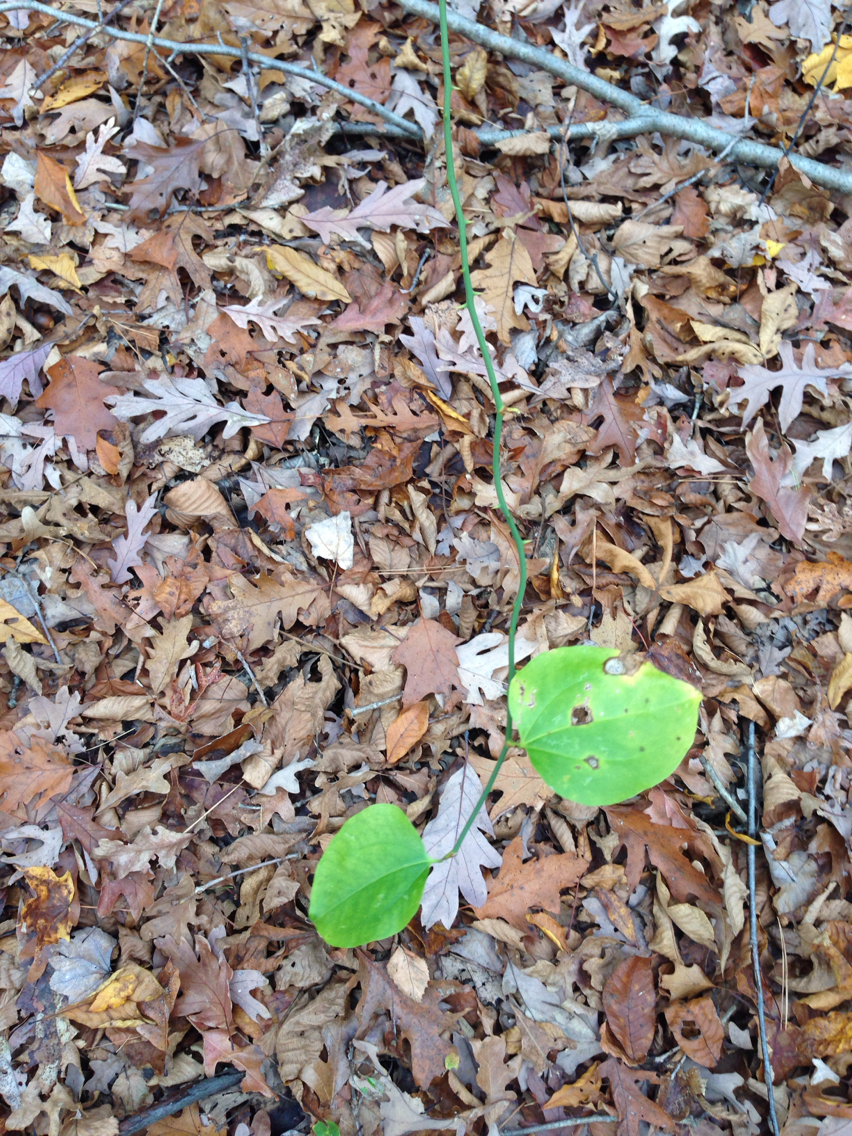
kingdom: Plantae
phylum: Tracheophyta
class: Liliopsida
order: Liliales
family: Smilacaceae
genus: Smilax
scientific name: Smilax rotundifolia
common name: Bullbriar
